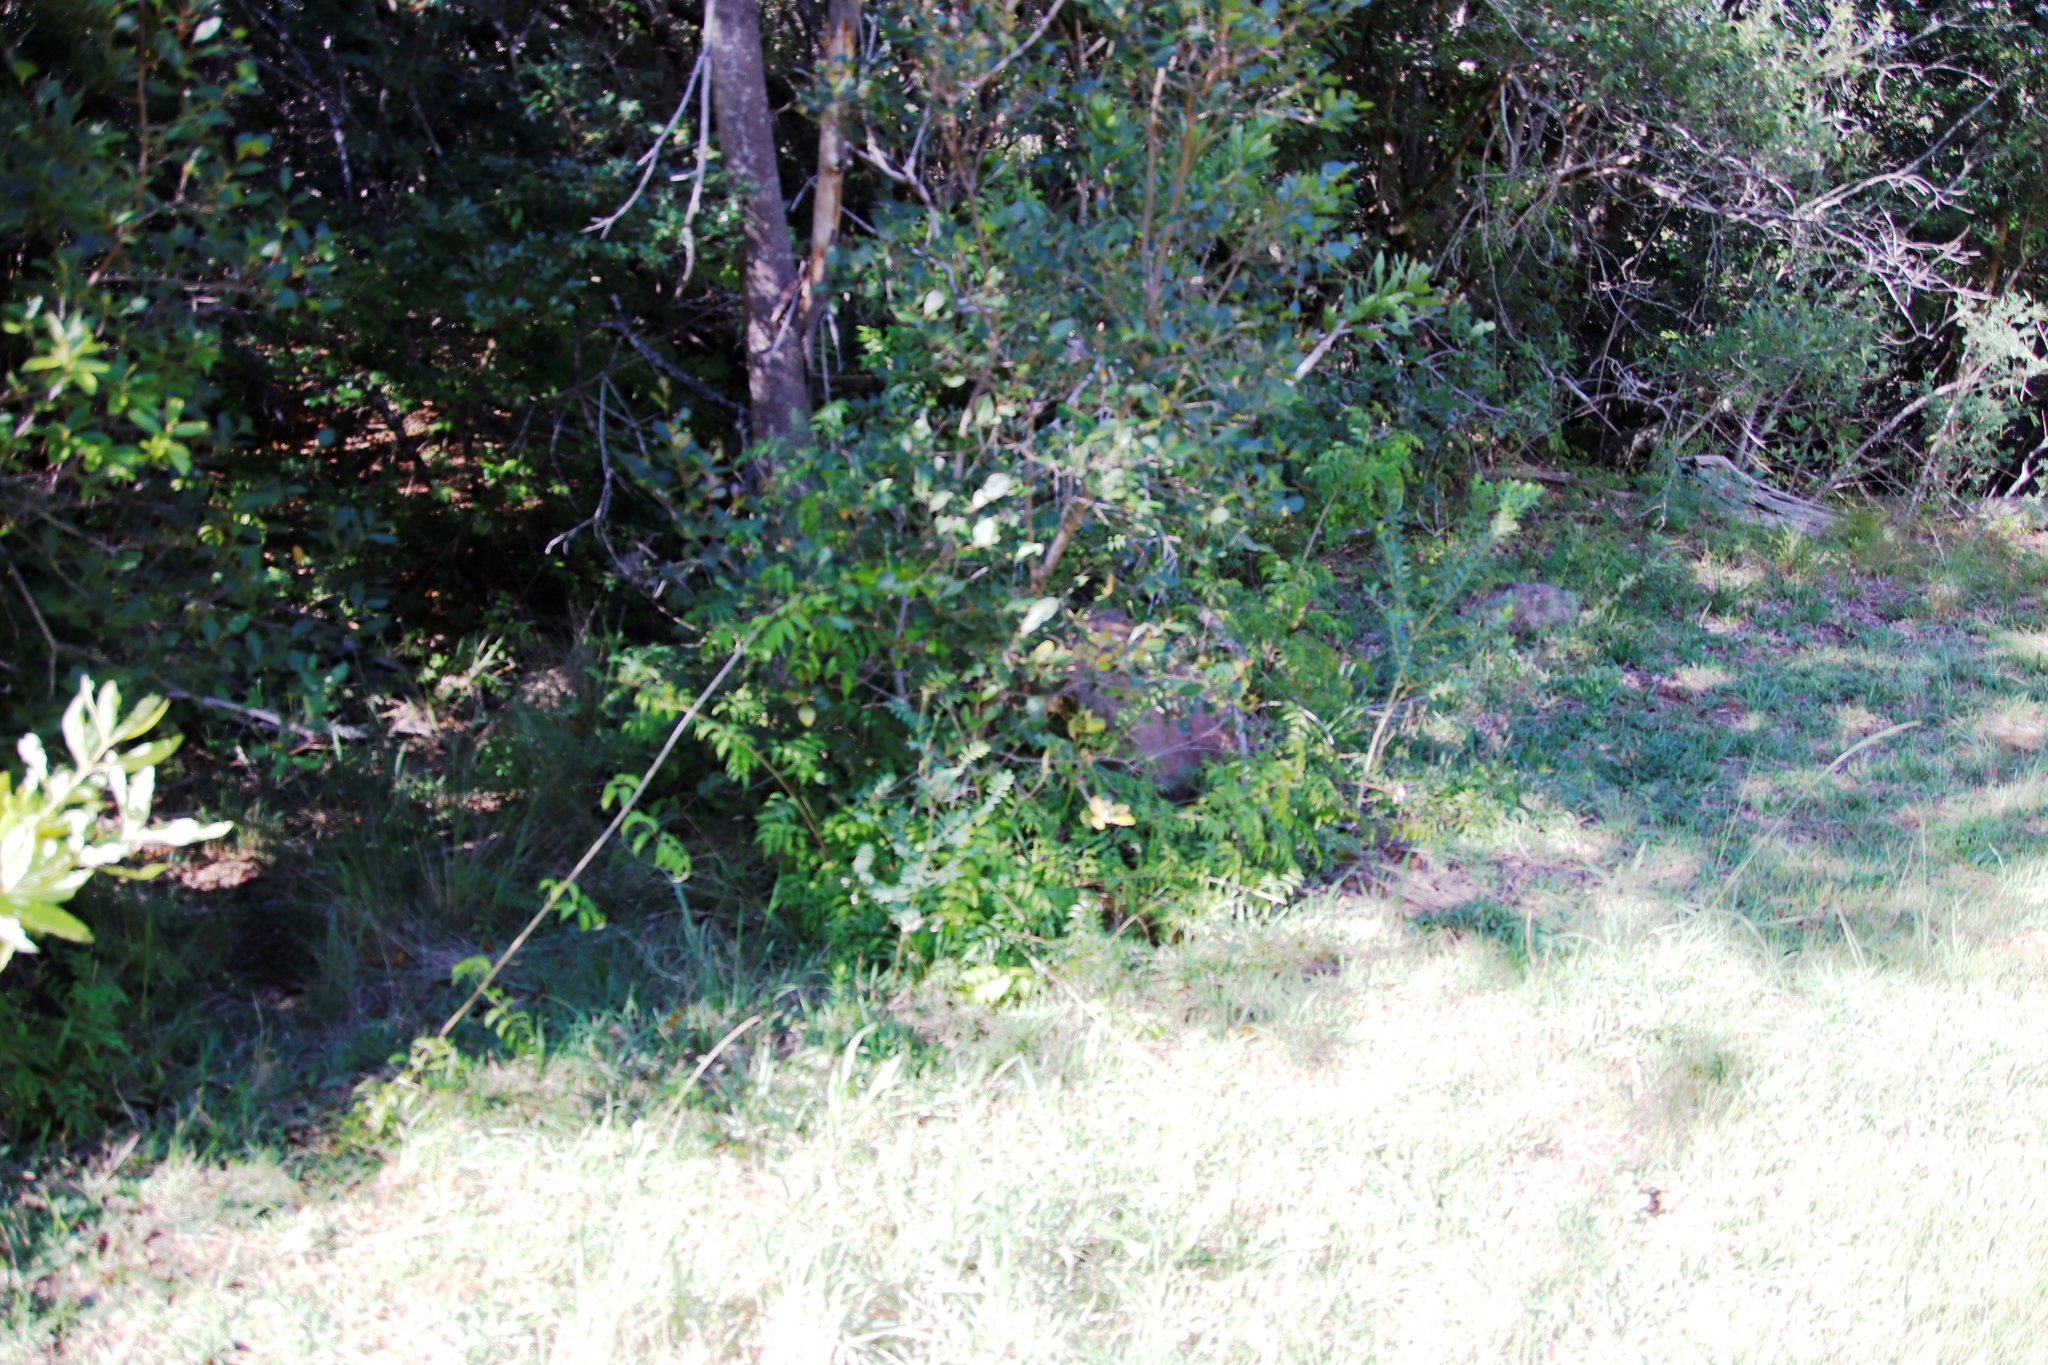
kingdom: Plantae
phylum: Tracheophyta
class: Magnoliopsida
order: Lamiales
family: Bignoniaceae
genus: Podranea
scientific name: Podranea ricasoliana
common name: Zimbabwe creeper
